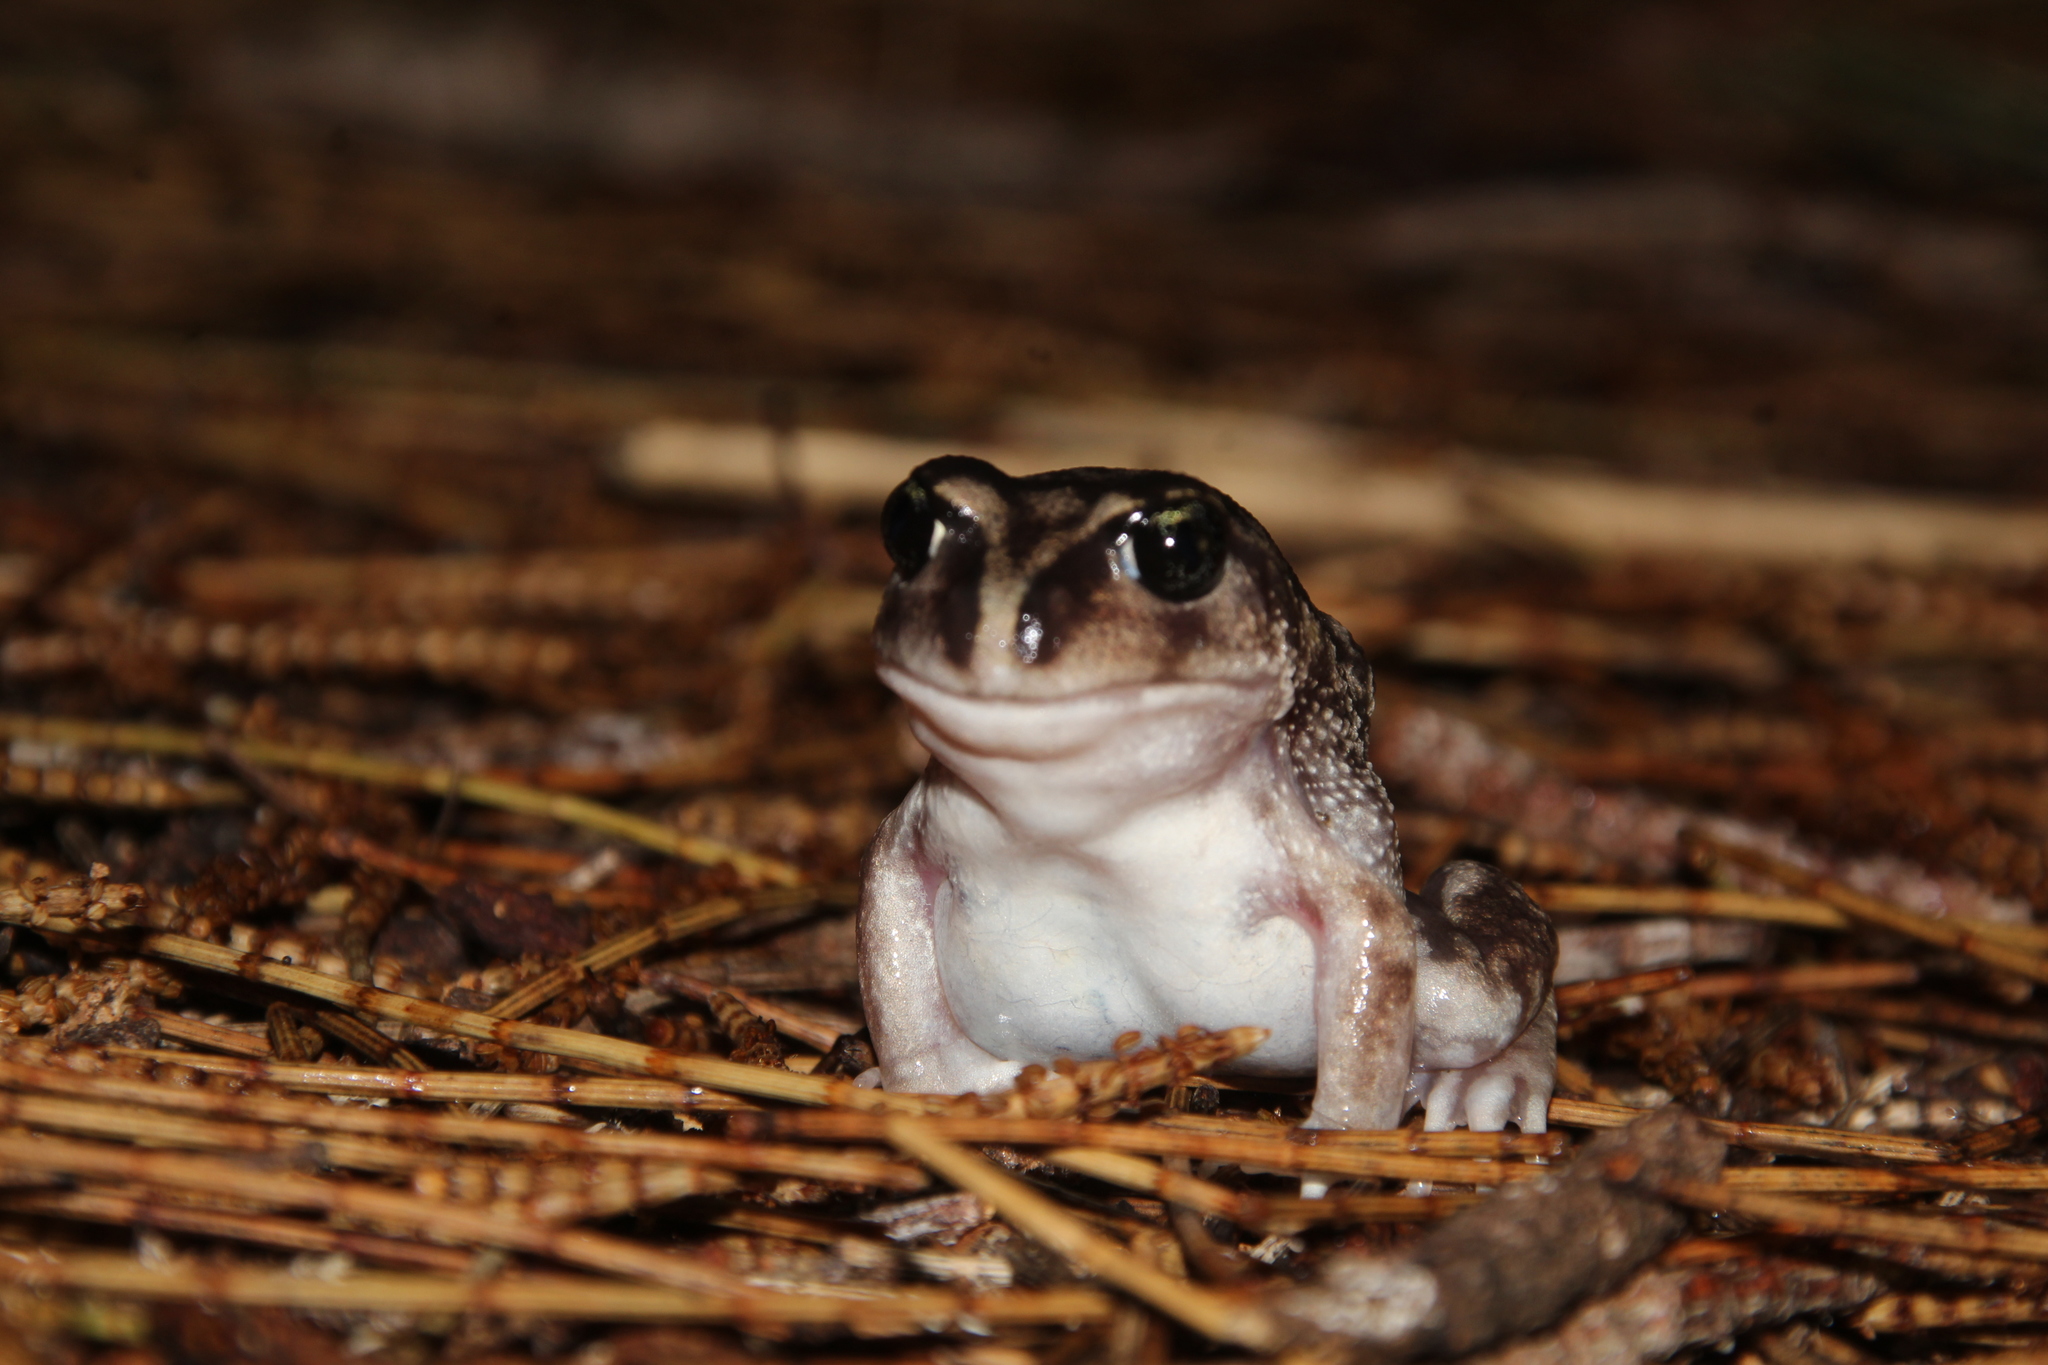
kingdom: Animalia
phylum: Chordata
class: Amphibia
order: Anura
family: Limnodynastidae
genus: Heleioporus
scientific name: Heleioporus eyrei
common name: Moaning frog
